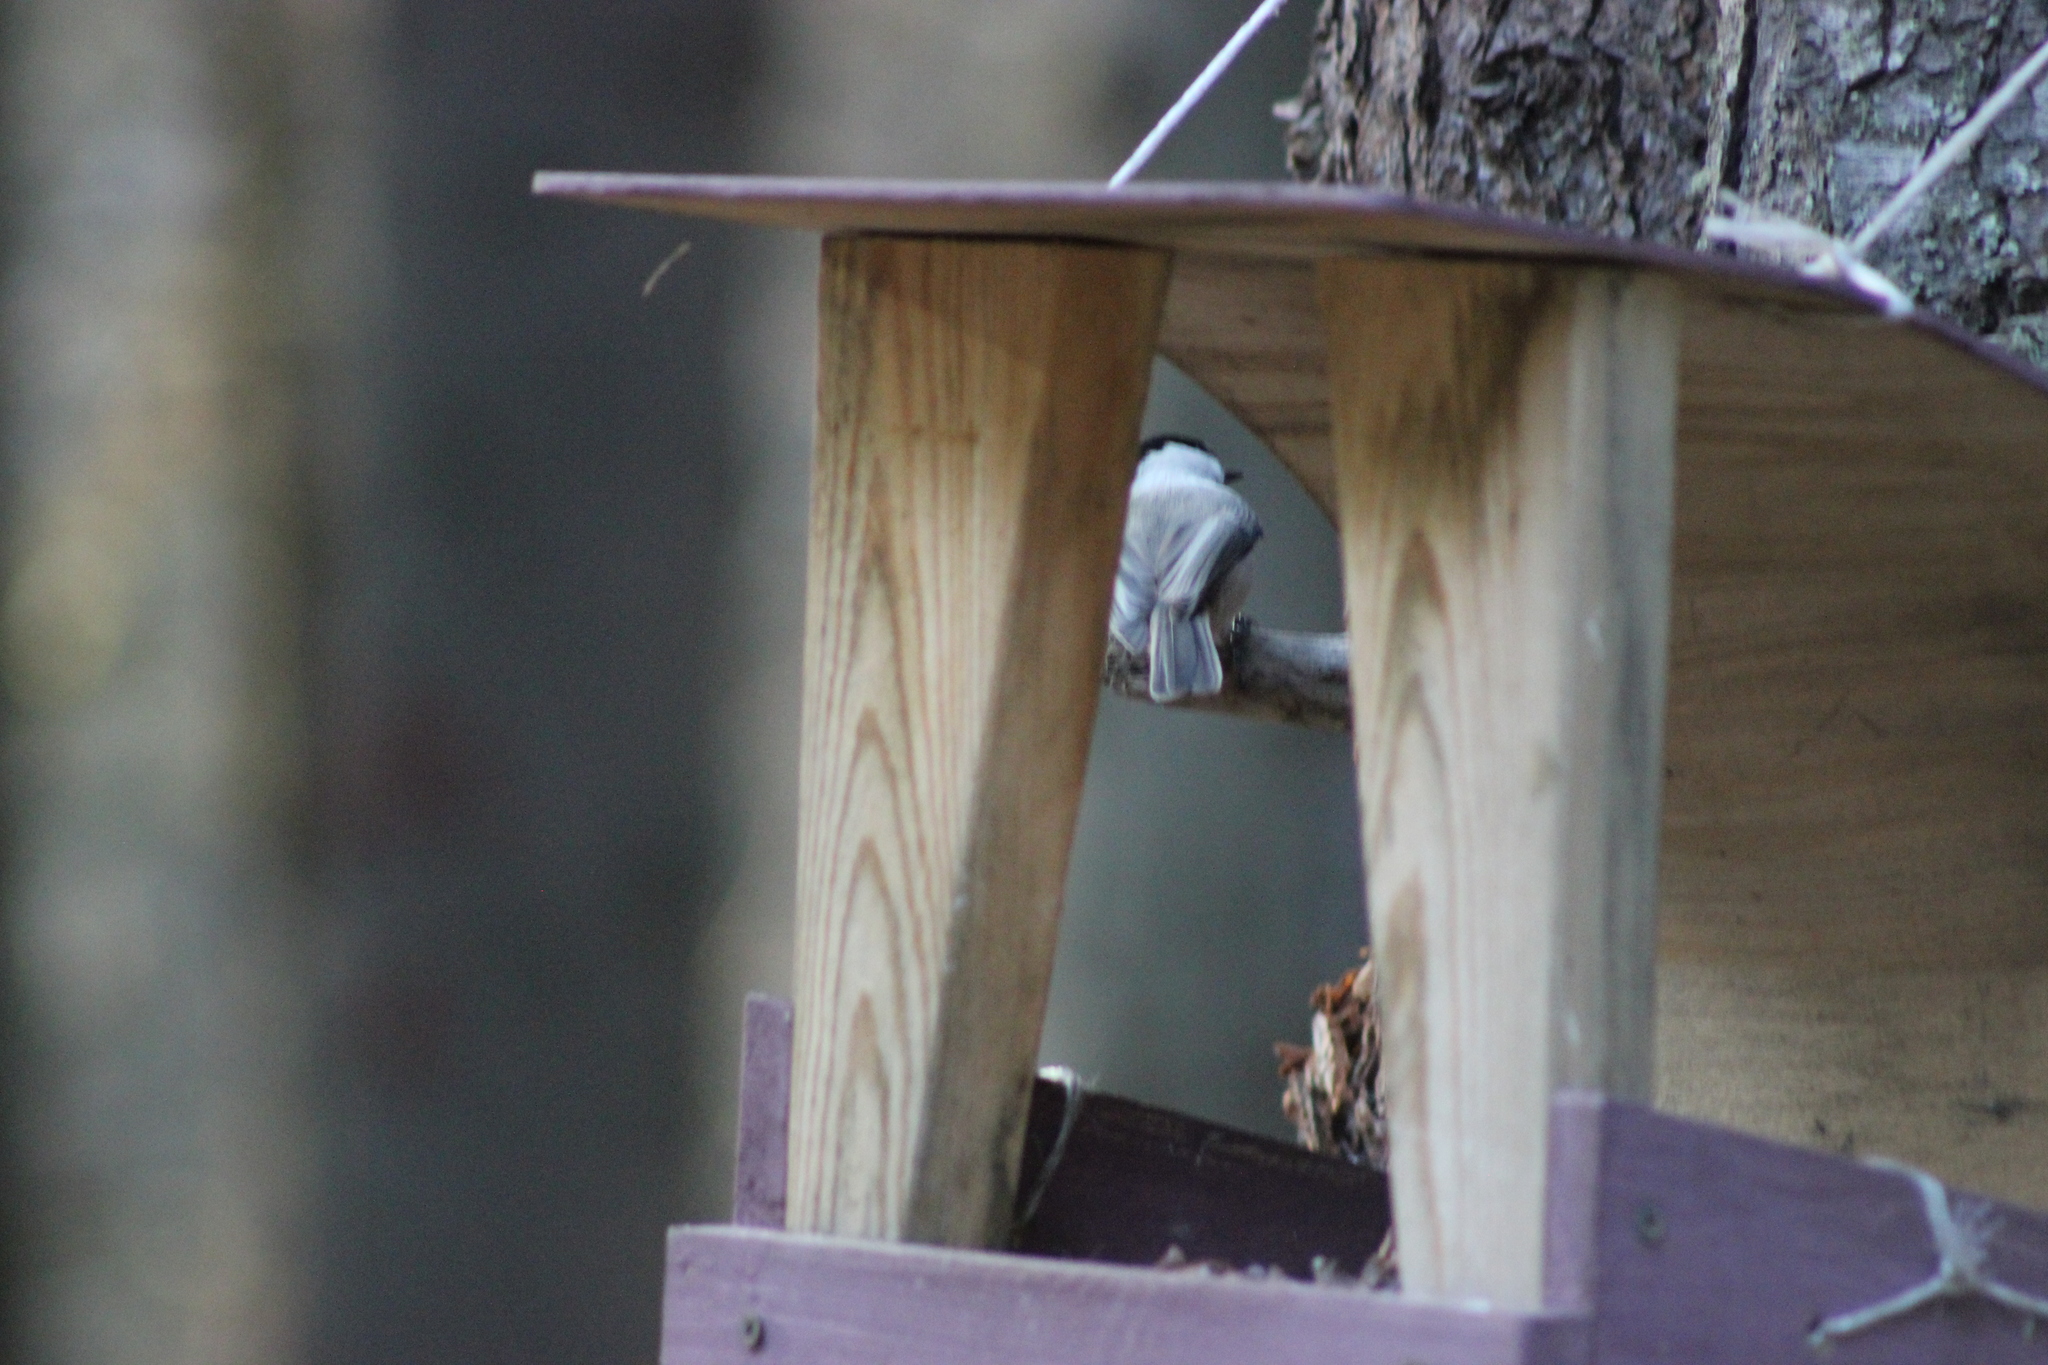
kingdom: Animalia
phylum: Chordata
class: Aves
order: Passeriformes
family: Paridae
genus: Poecile
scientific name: Poecile montanus
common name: Willow tit
